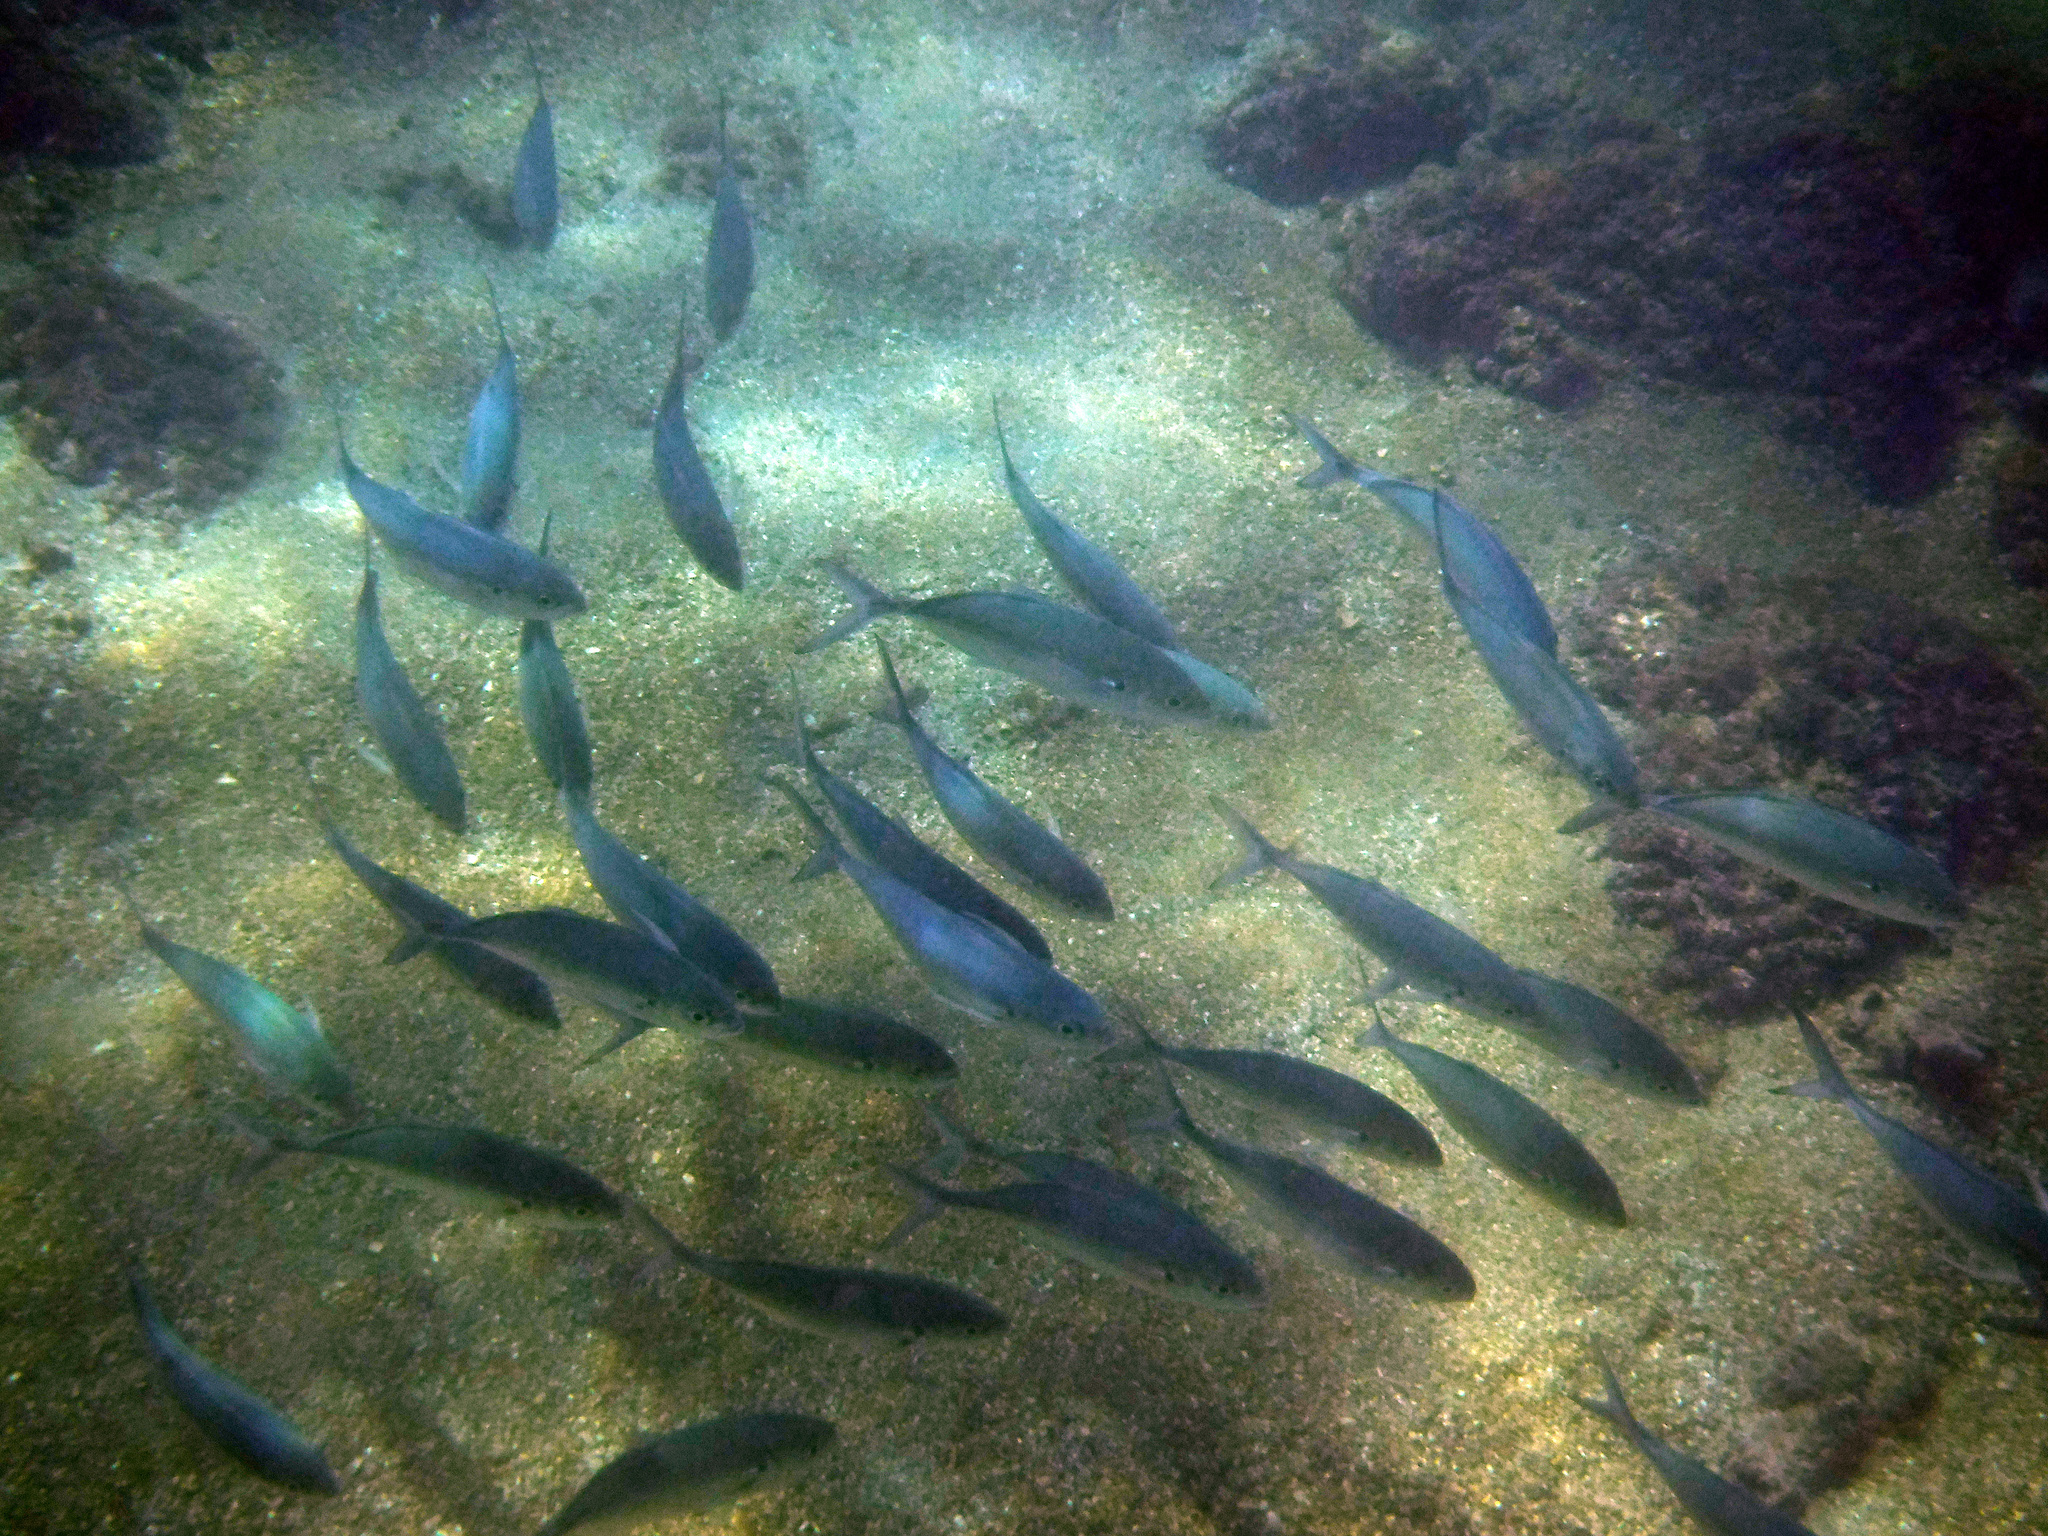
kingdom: Animalia
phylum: Chordata
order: Perciformes
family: Carangidae
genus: Caranx
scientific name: Caranx caballus
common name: Green jack
